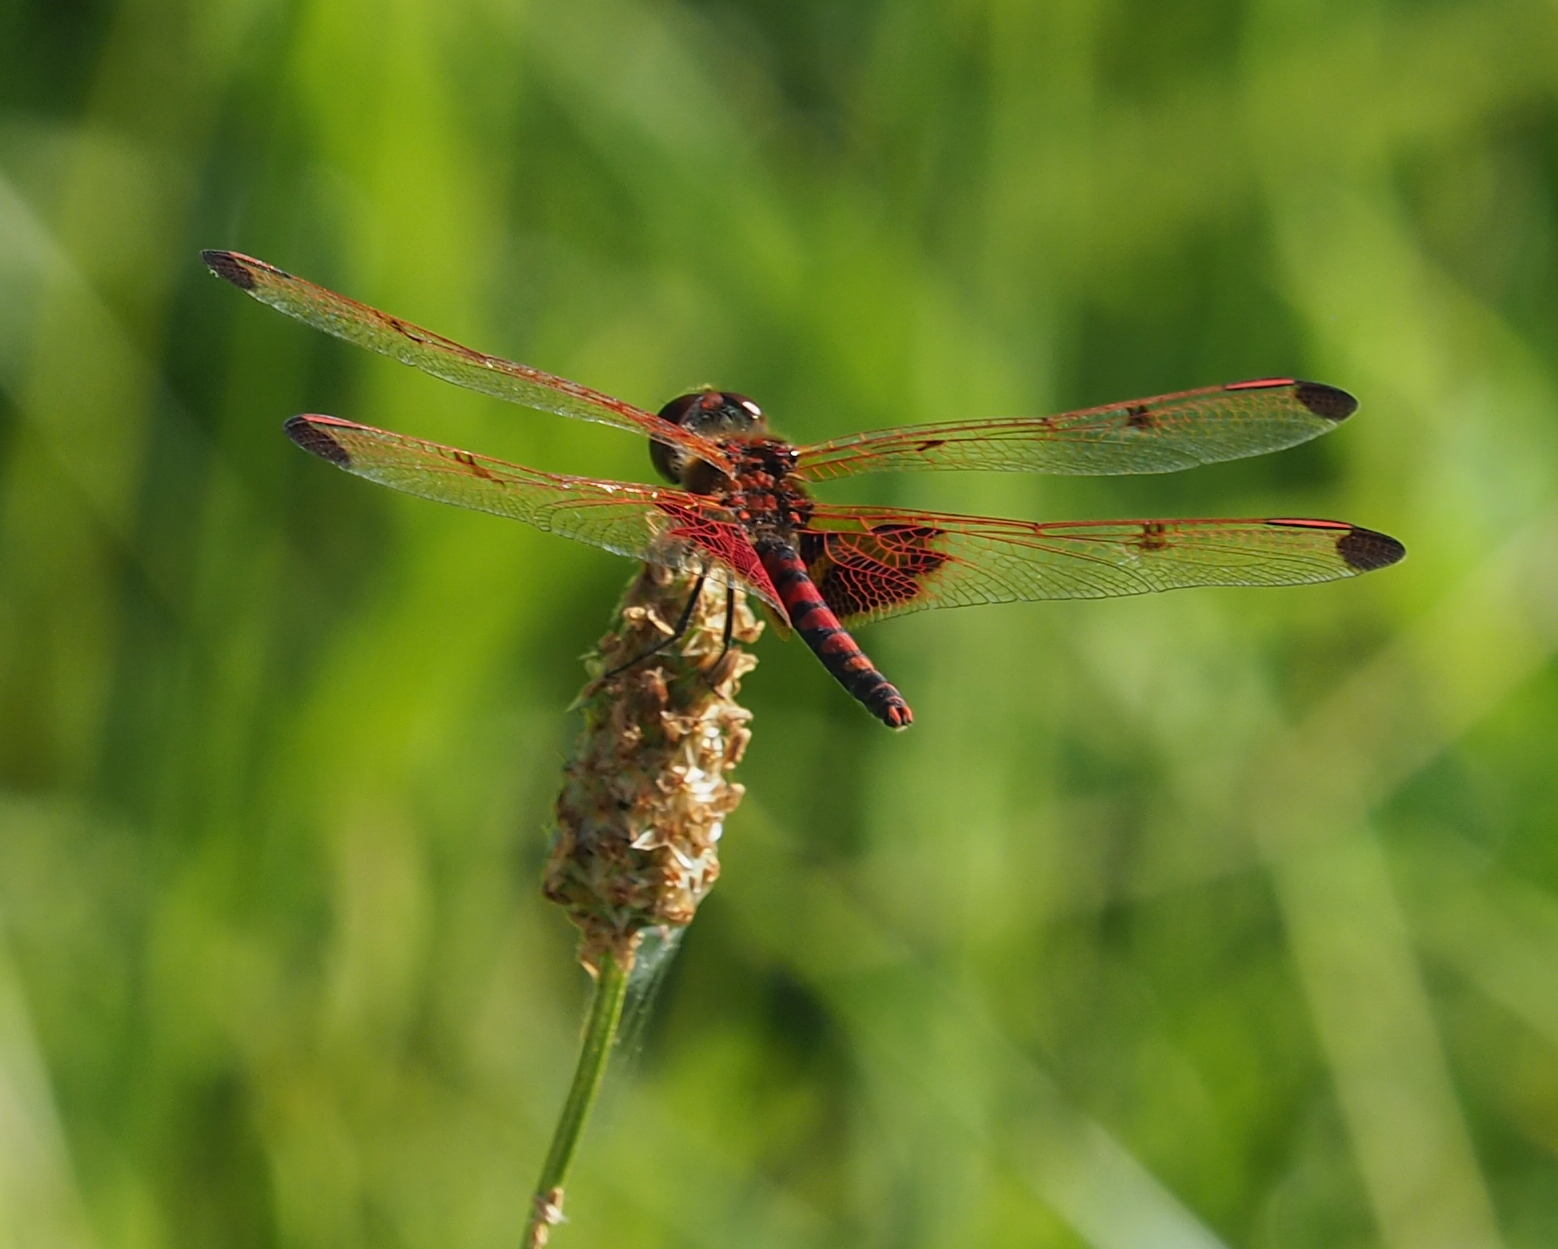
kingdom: Animalia
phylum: Arthropoda
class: Insecta
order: Odonata
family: Libellulidae
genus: Celithemis
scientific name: Celithemis elisa
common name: Calico pennant
